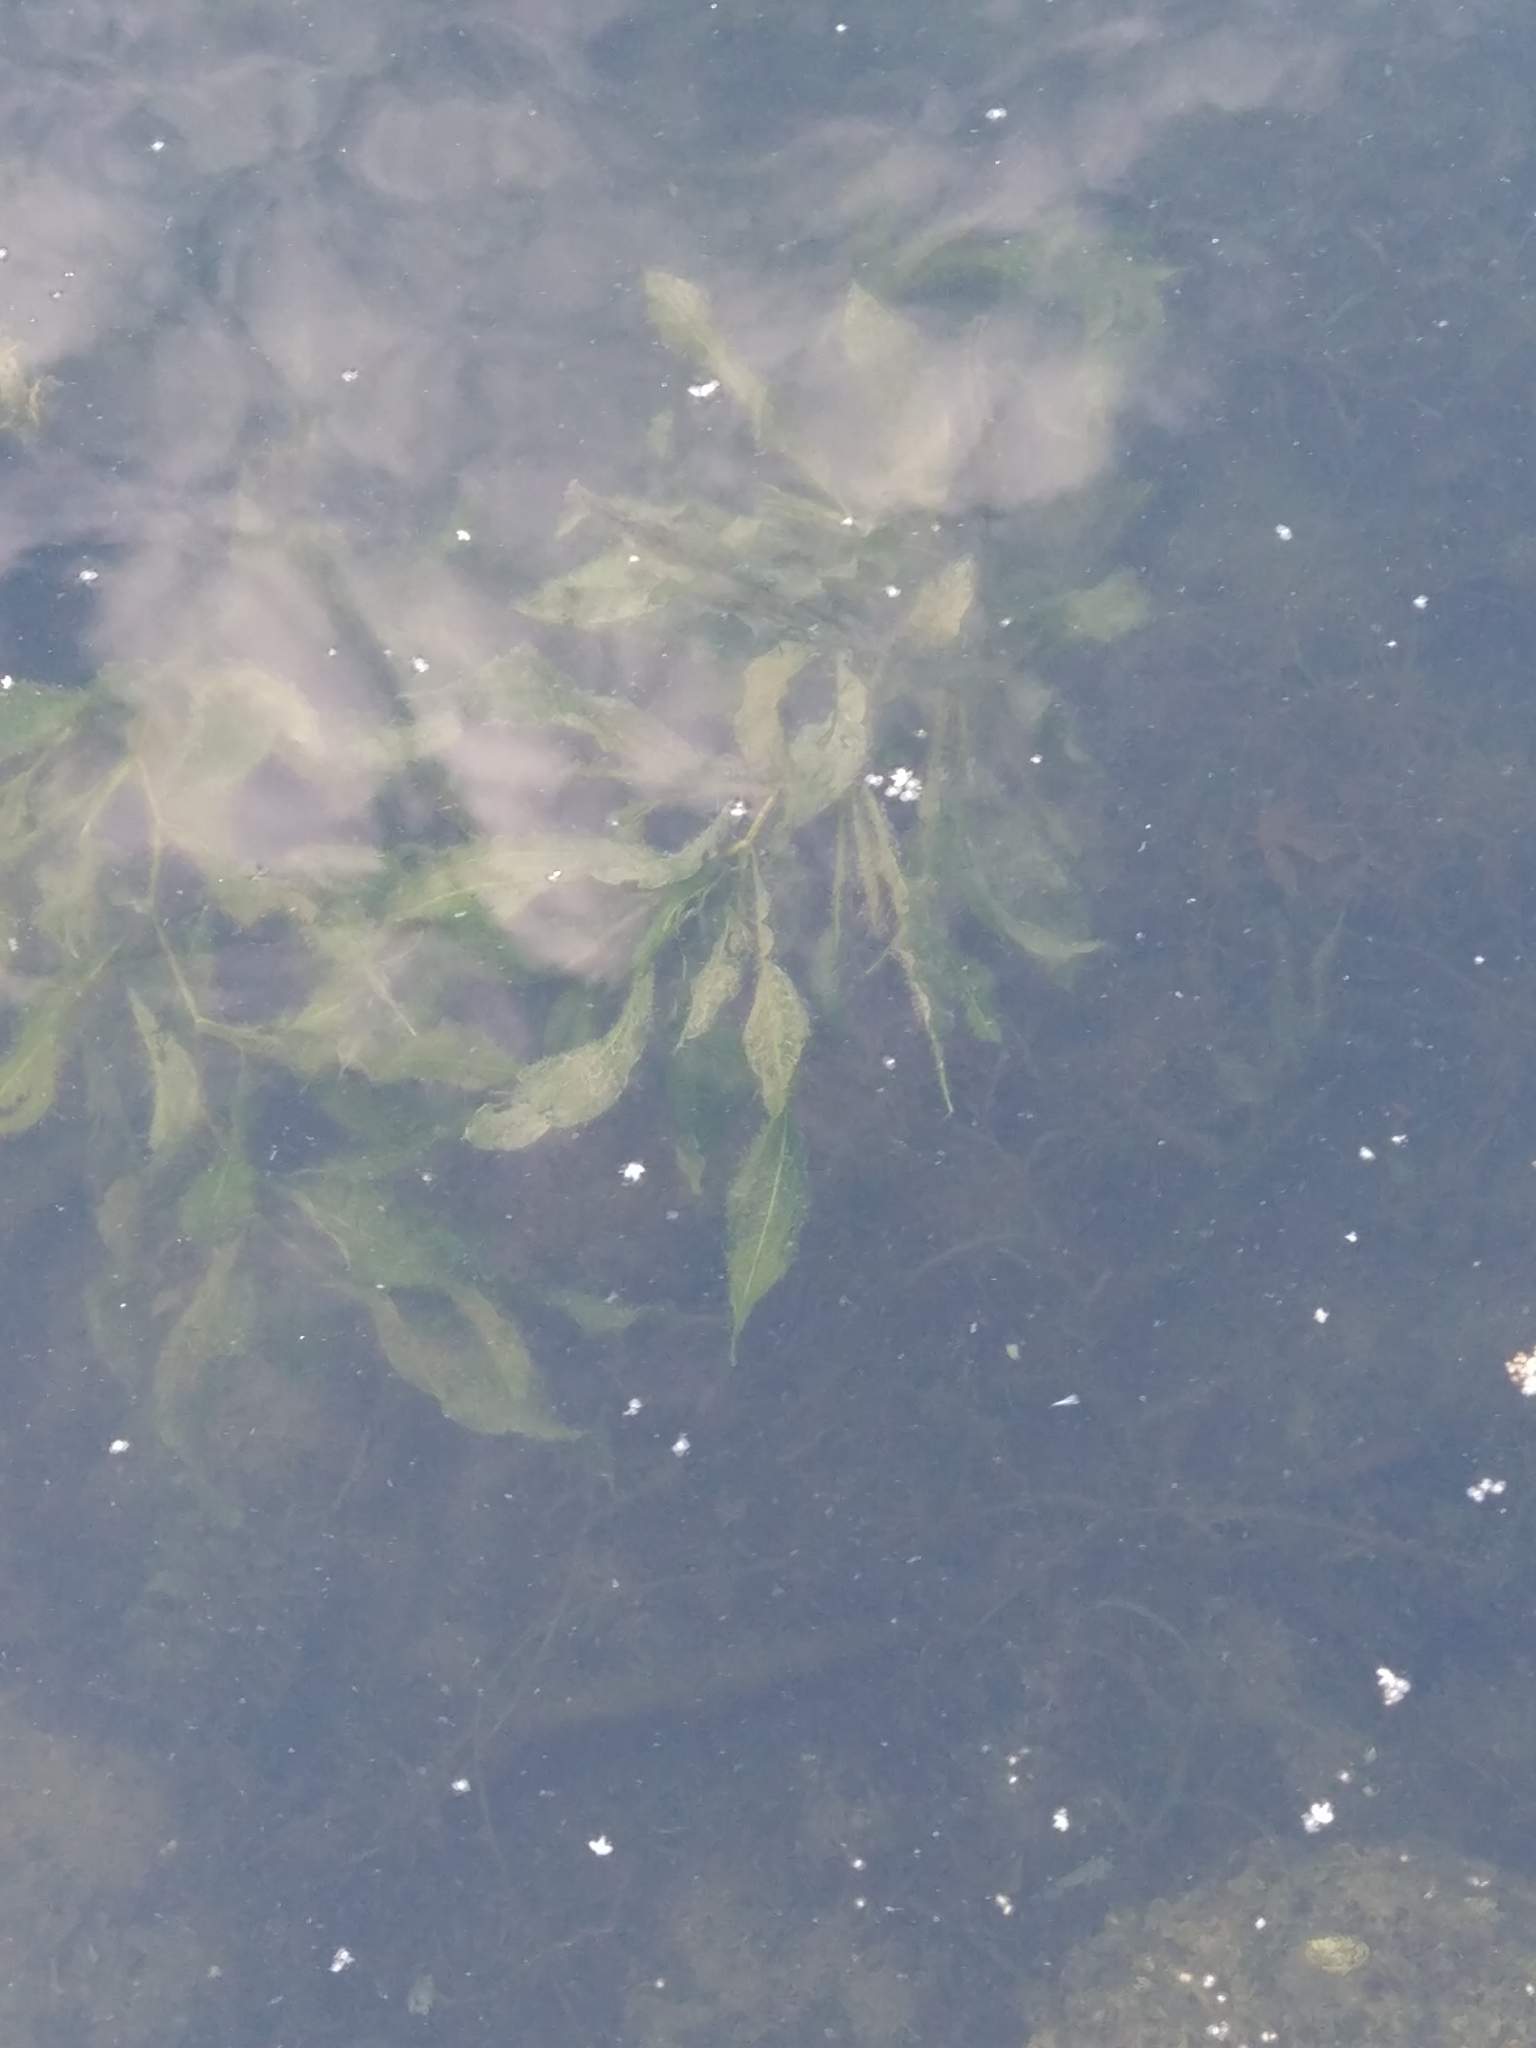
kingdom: Plantae
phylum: Tracheophyta
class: Liliopsida
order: Alismatales
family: Potamogetonaceae
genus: Potamogeton
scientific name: Potamogeton lucens
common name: Shining pondweed
